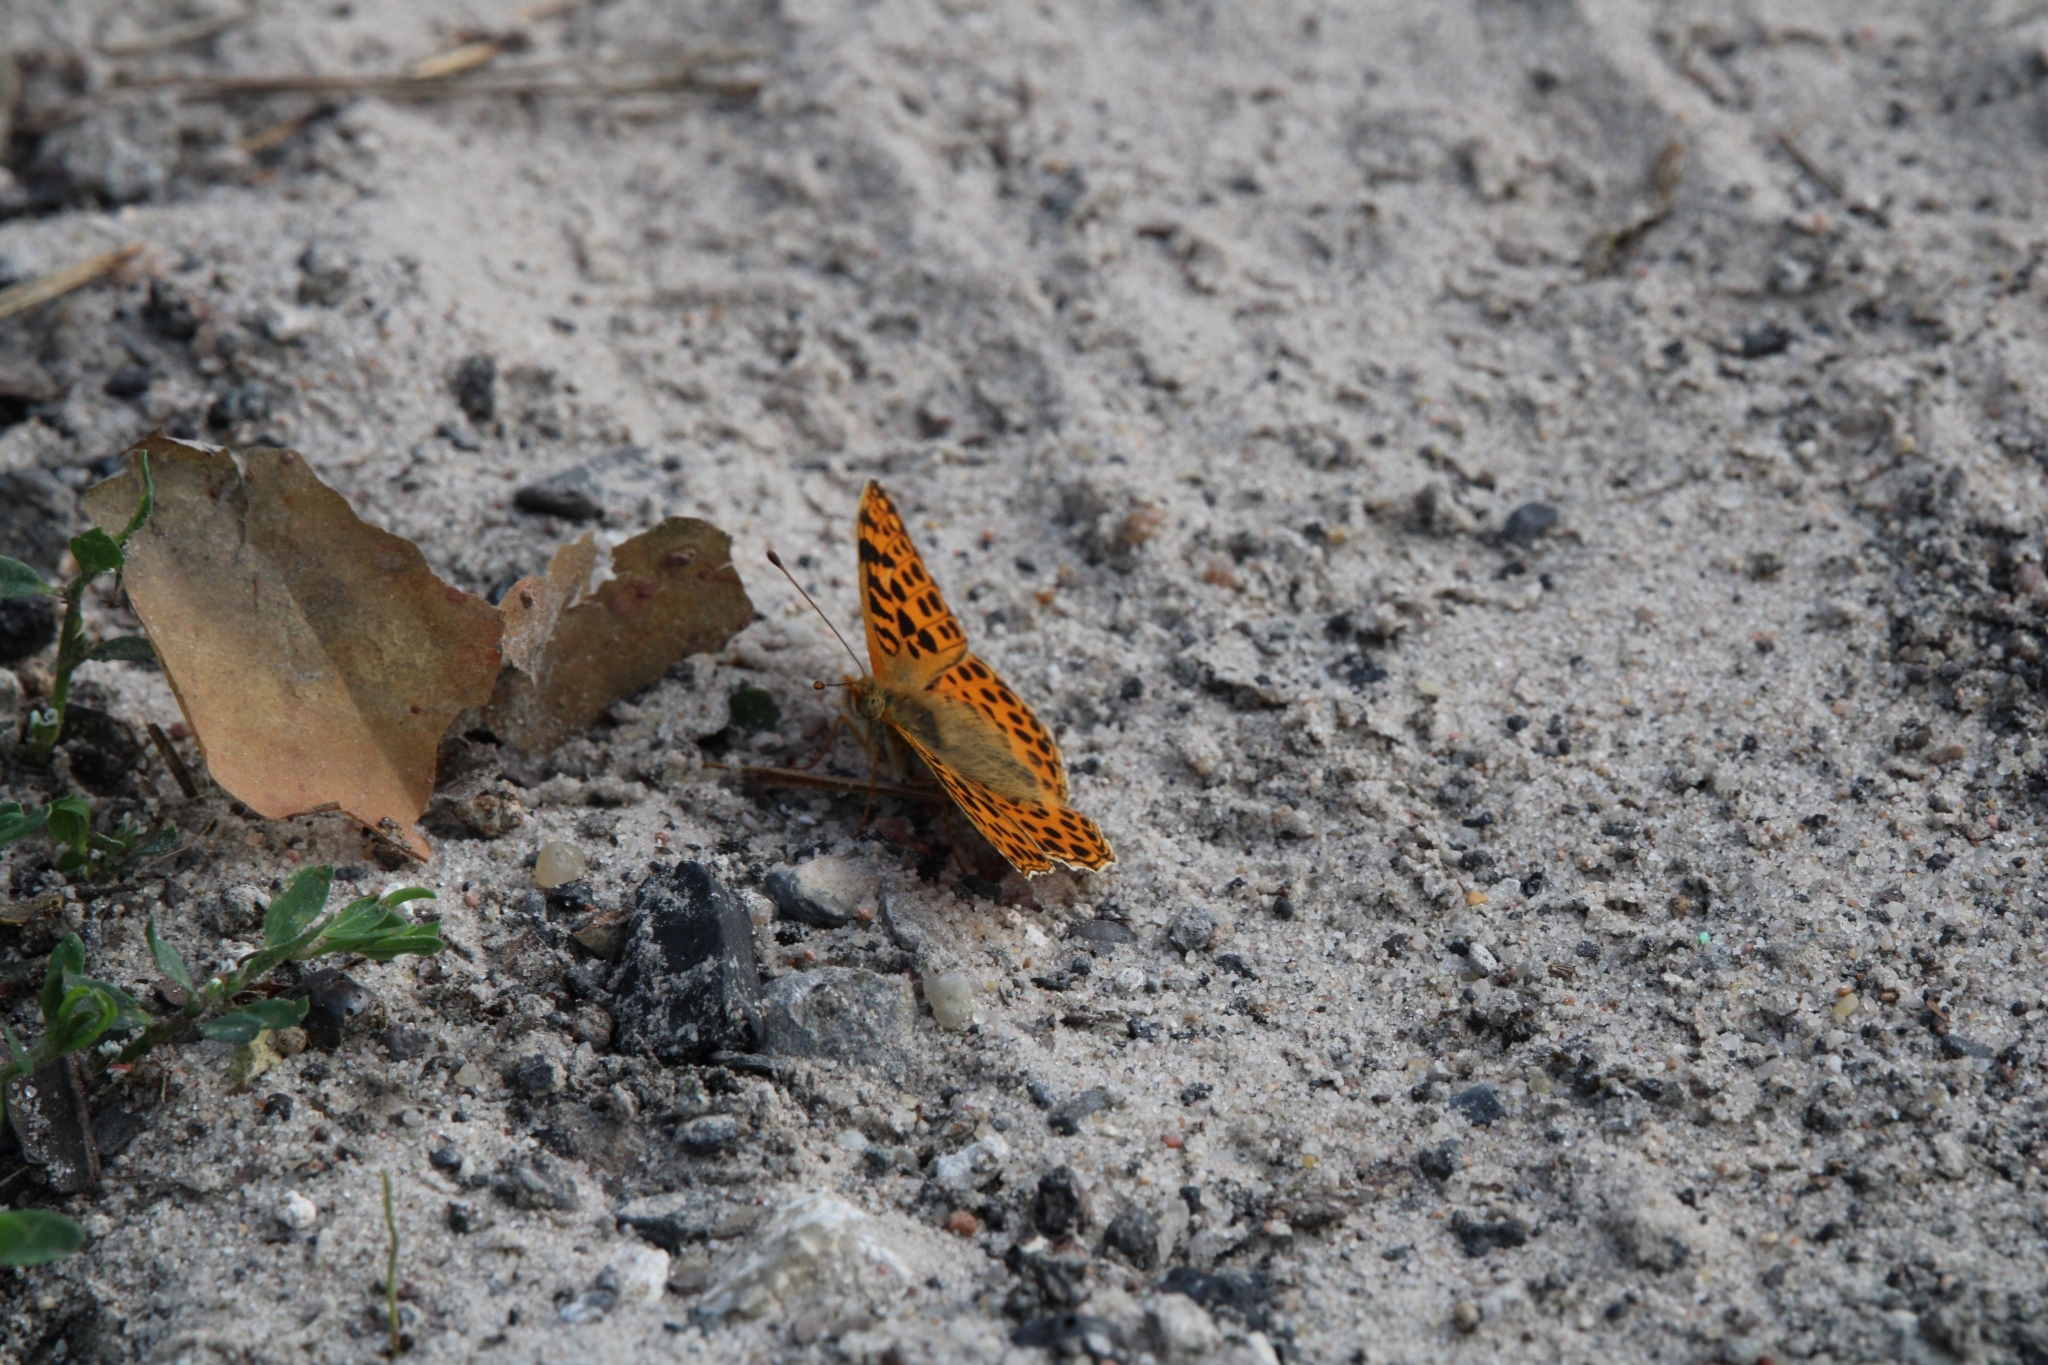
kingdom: Animalia
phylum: Arthropoda
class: Insecta
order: Lepidoptera
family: Nymphalidae
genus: Issoria
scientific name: Issoria lathonia
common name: Queen of spain fritillary
